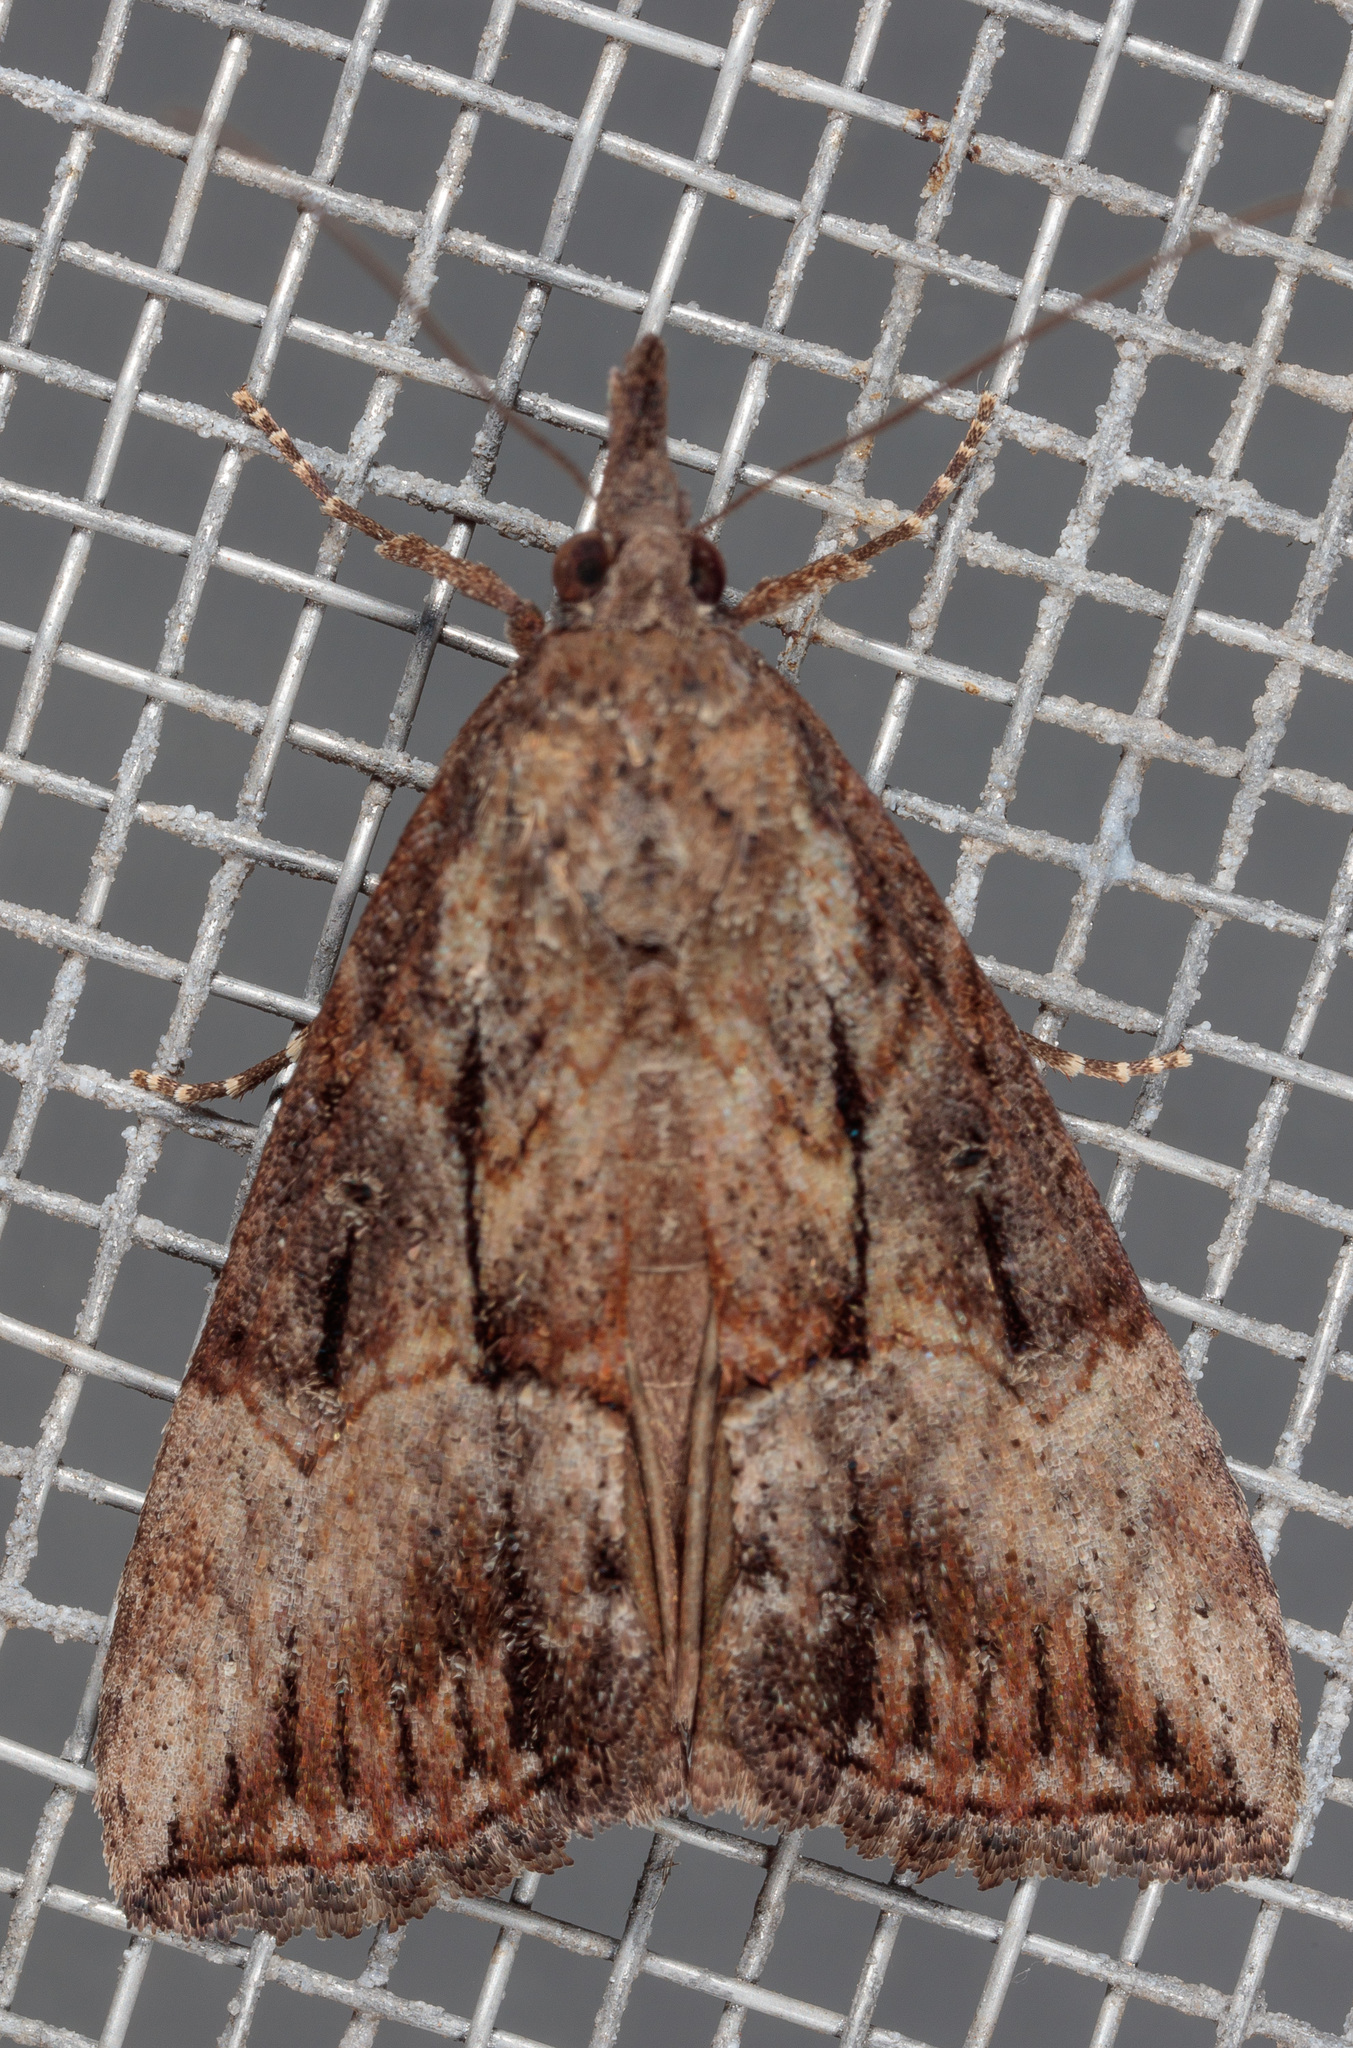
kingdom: Animalia
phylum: Arthropoda
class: Insecta
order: Lepidoptera
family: Erebidae
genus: Hypena
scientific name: Hypena scabra
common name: Green cloverworm
